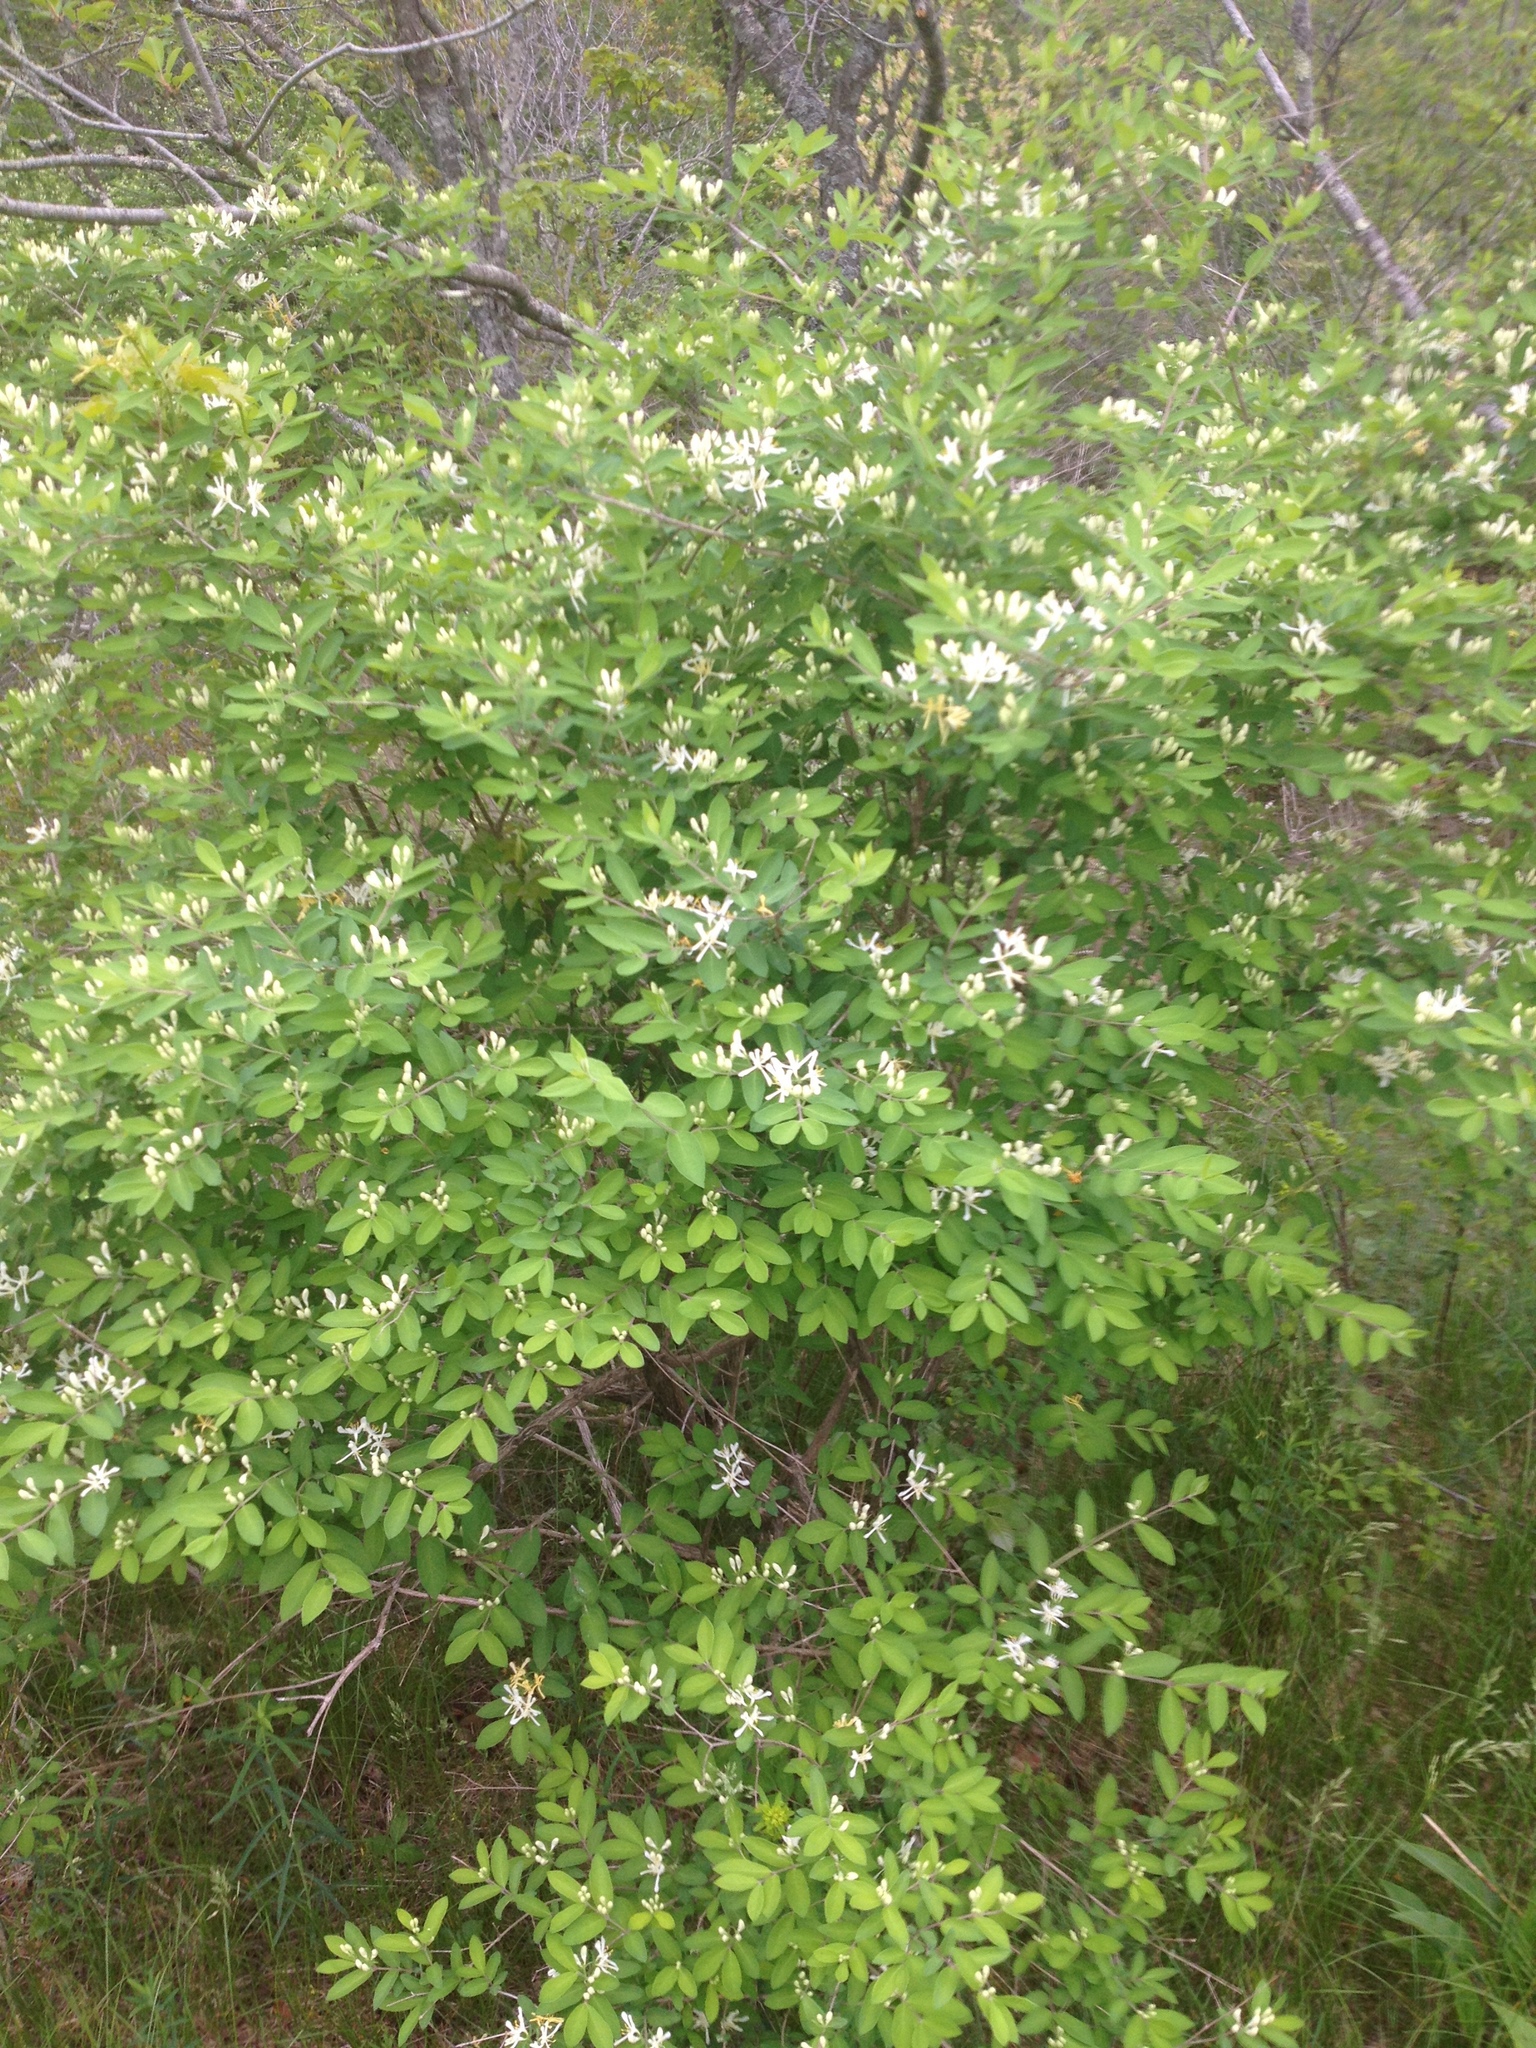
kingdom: Plantae
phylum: Tracheophyta
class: Magnoliopsida
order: Dipsacales
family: Caprifoliaceae
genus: Lonicera
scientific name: Lonicera
